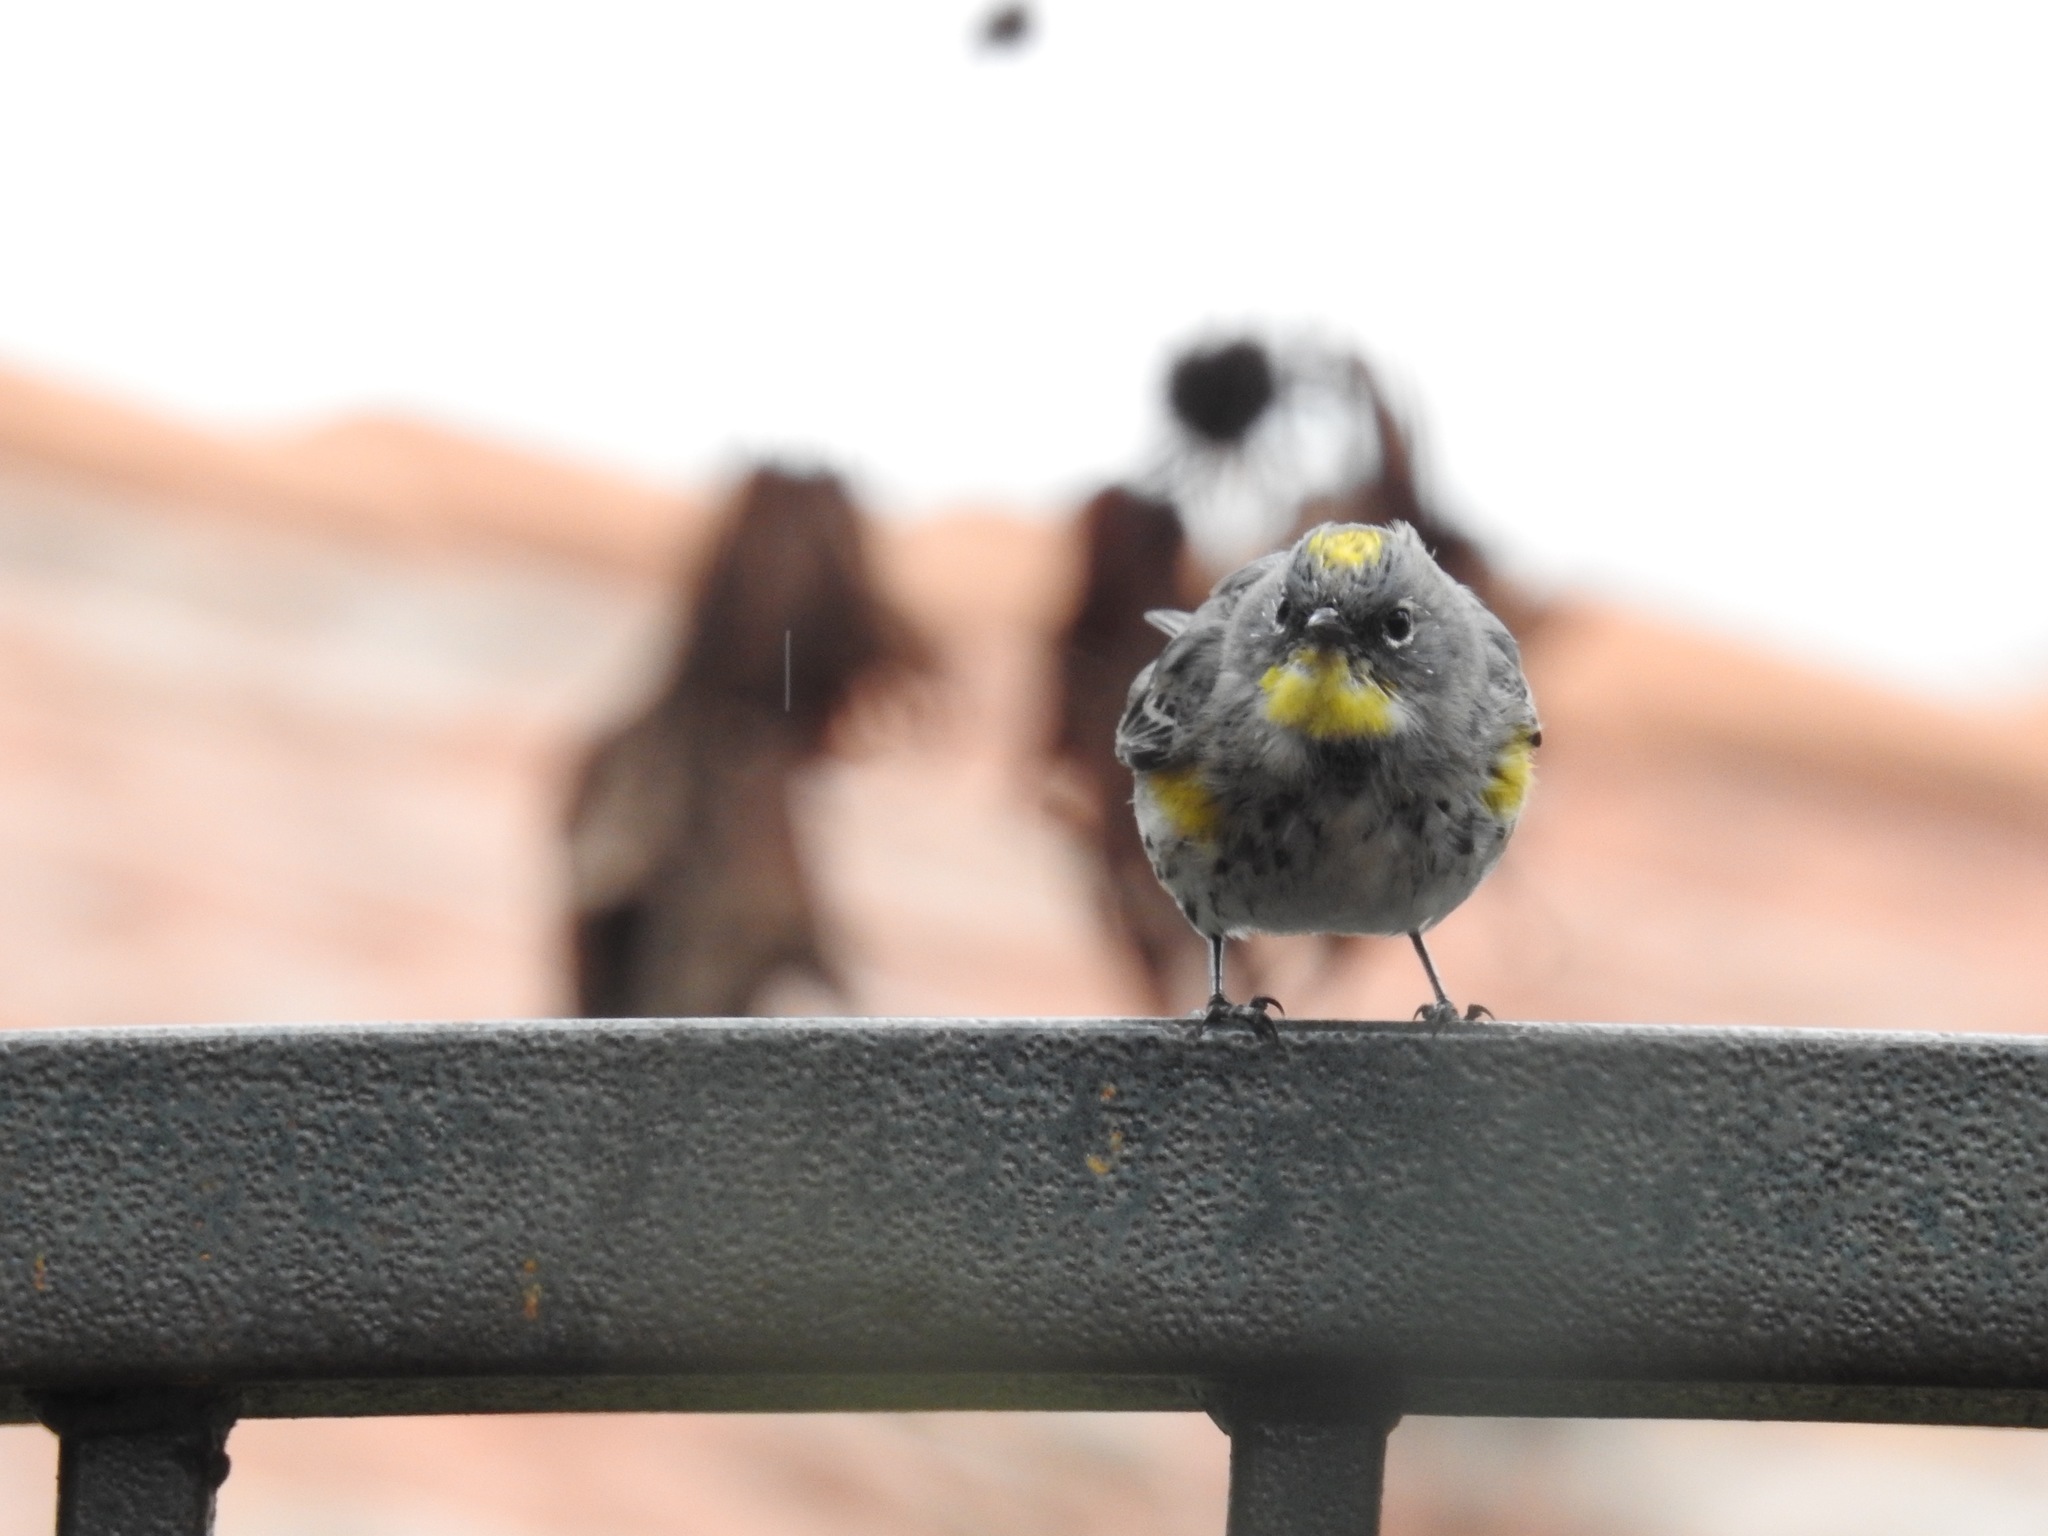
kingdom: Animalia
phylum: Chordata
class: Aves
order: Passeriformes
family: Parulidae
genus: Setophaga
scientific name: Setophaga coronata
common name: Myrtle warbler
